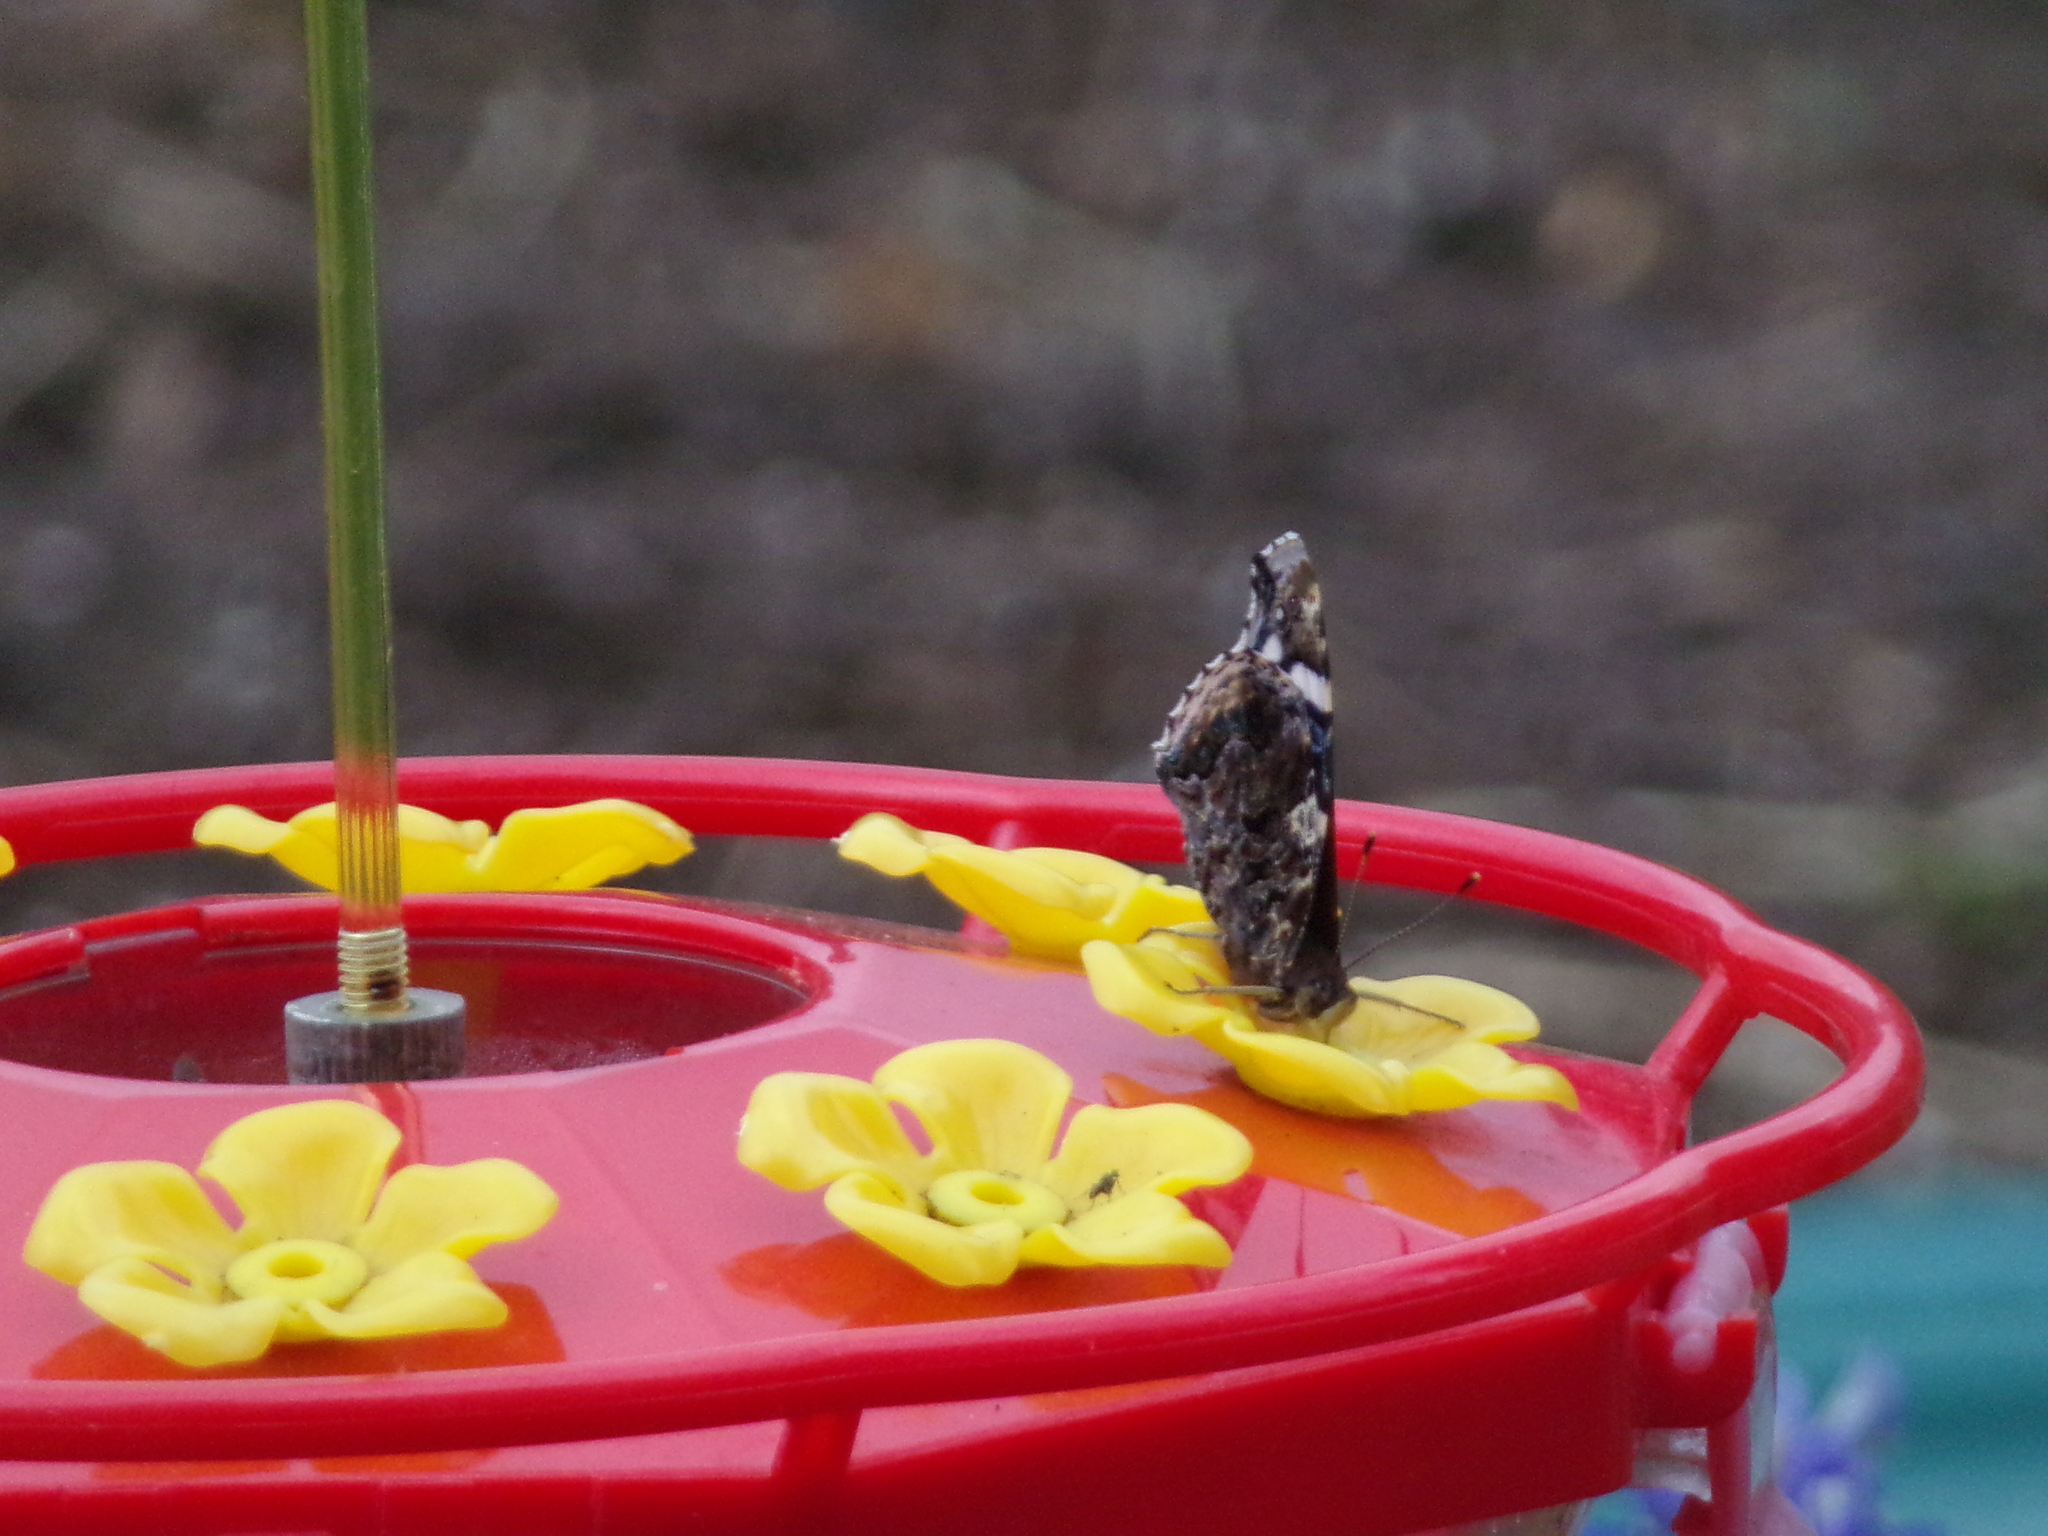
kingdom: Animalia
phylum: Arthropoda
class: Insecta
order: Lepidoptera
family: Nymphalidae
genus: Vanessa
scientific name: Vanessa atalanta
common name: Red admiral
